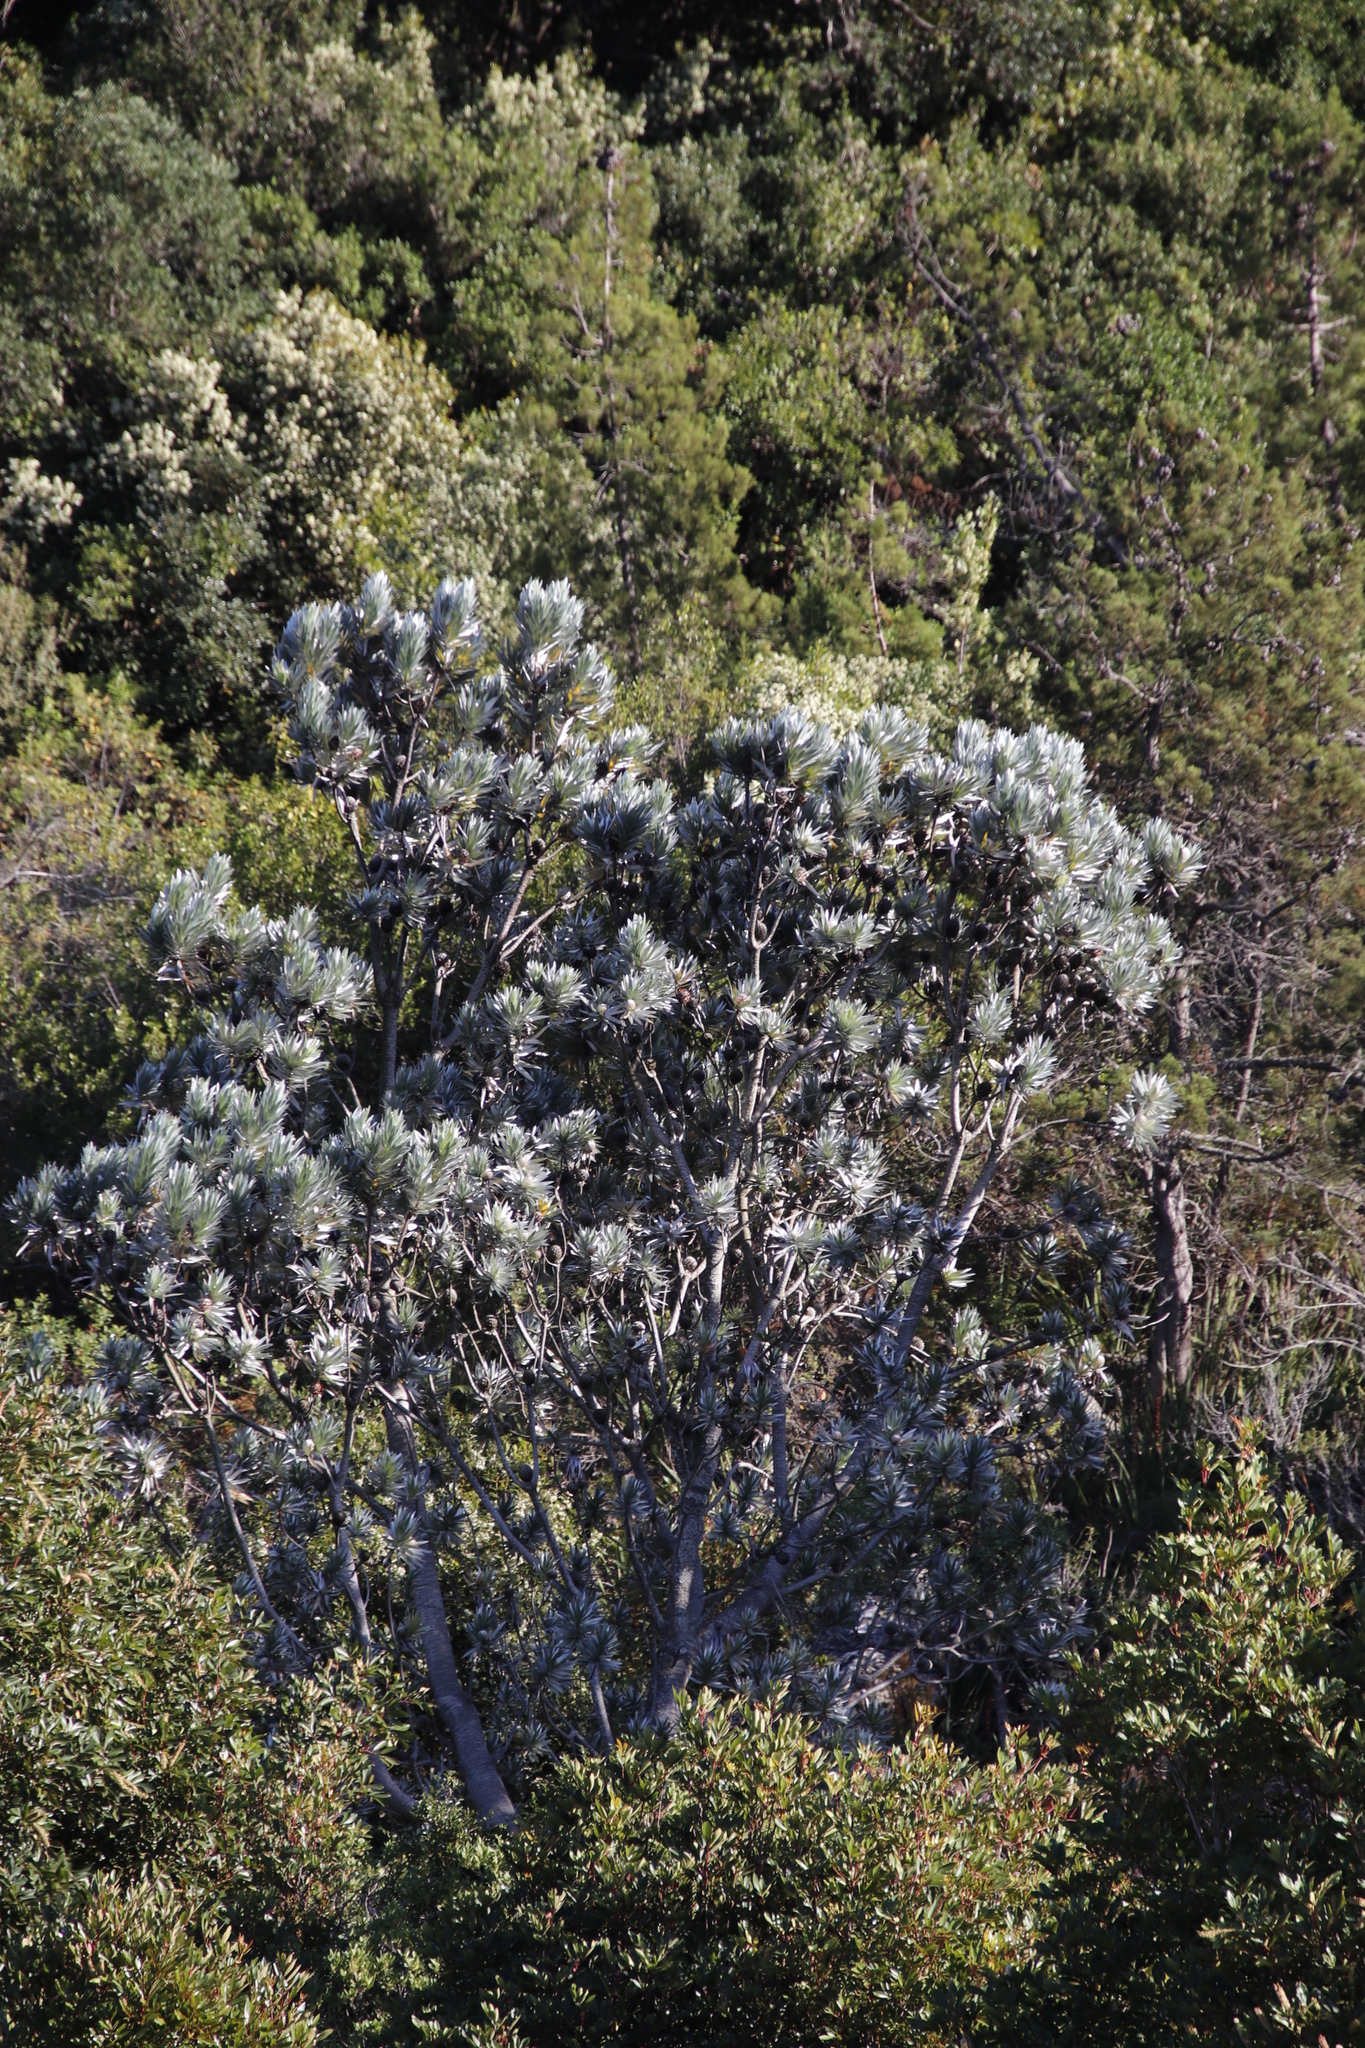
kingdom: Plantae
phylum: Tracheophyta
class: Magnoliopsida
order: Proteales
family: Proteaceae
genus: Leucadendron
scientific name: Leucadendron argenteum
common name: Cape silver tree
